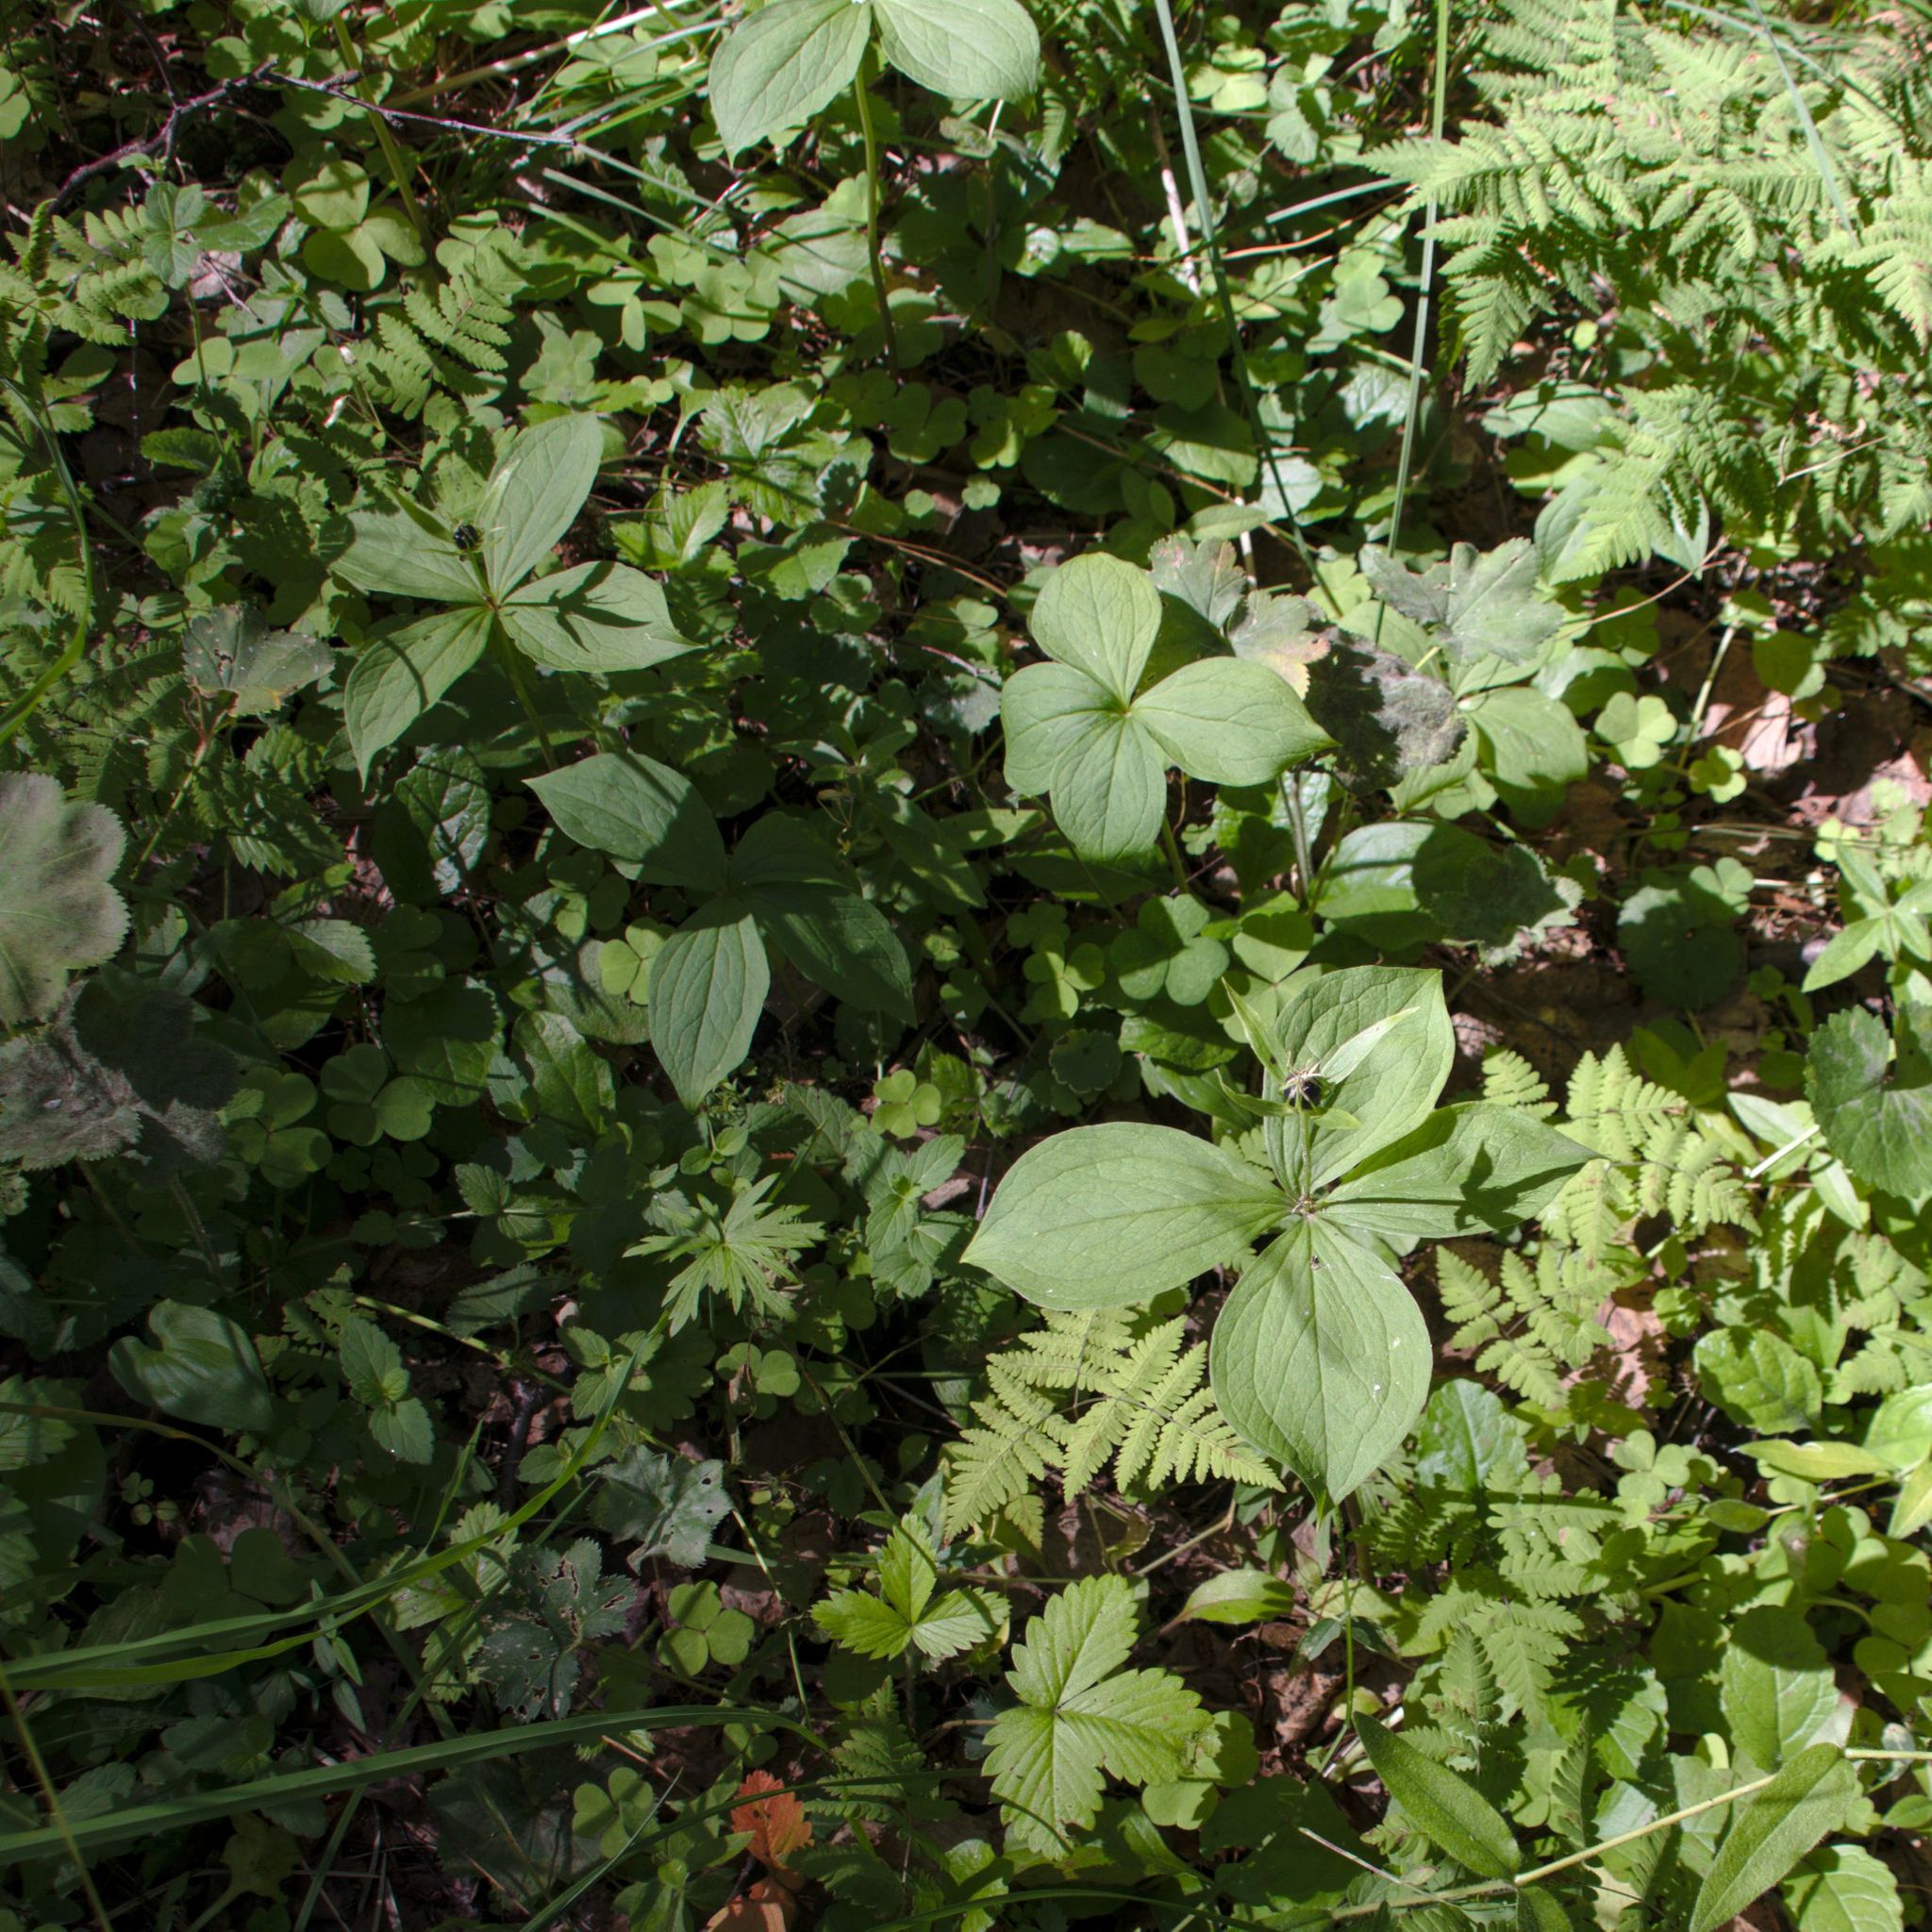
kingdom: Plantae
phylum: Tracheophyta
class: Liliopsida
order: Liliales
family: Melanthiaceae
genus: Paris
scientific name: Paris quadrifolia
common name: Herb-paris
